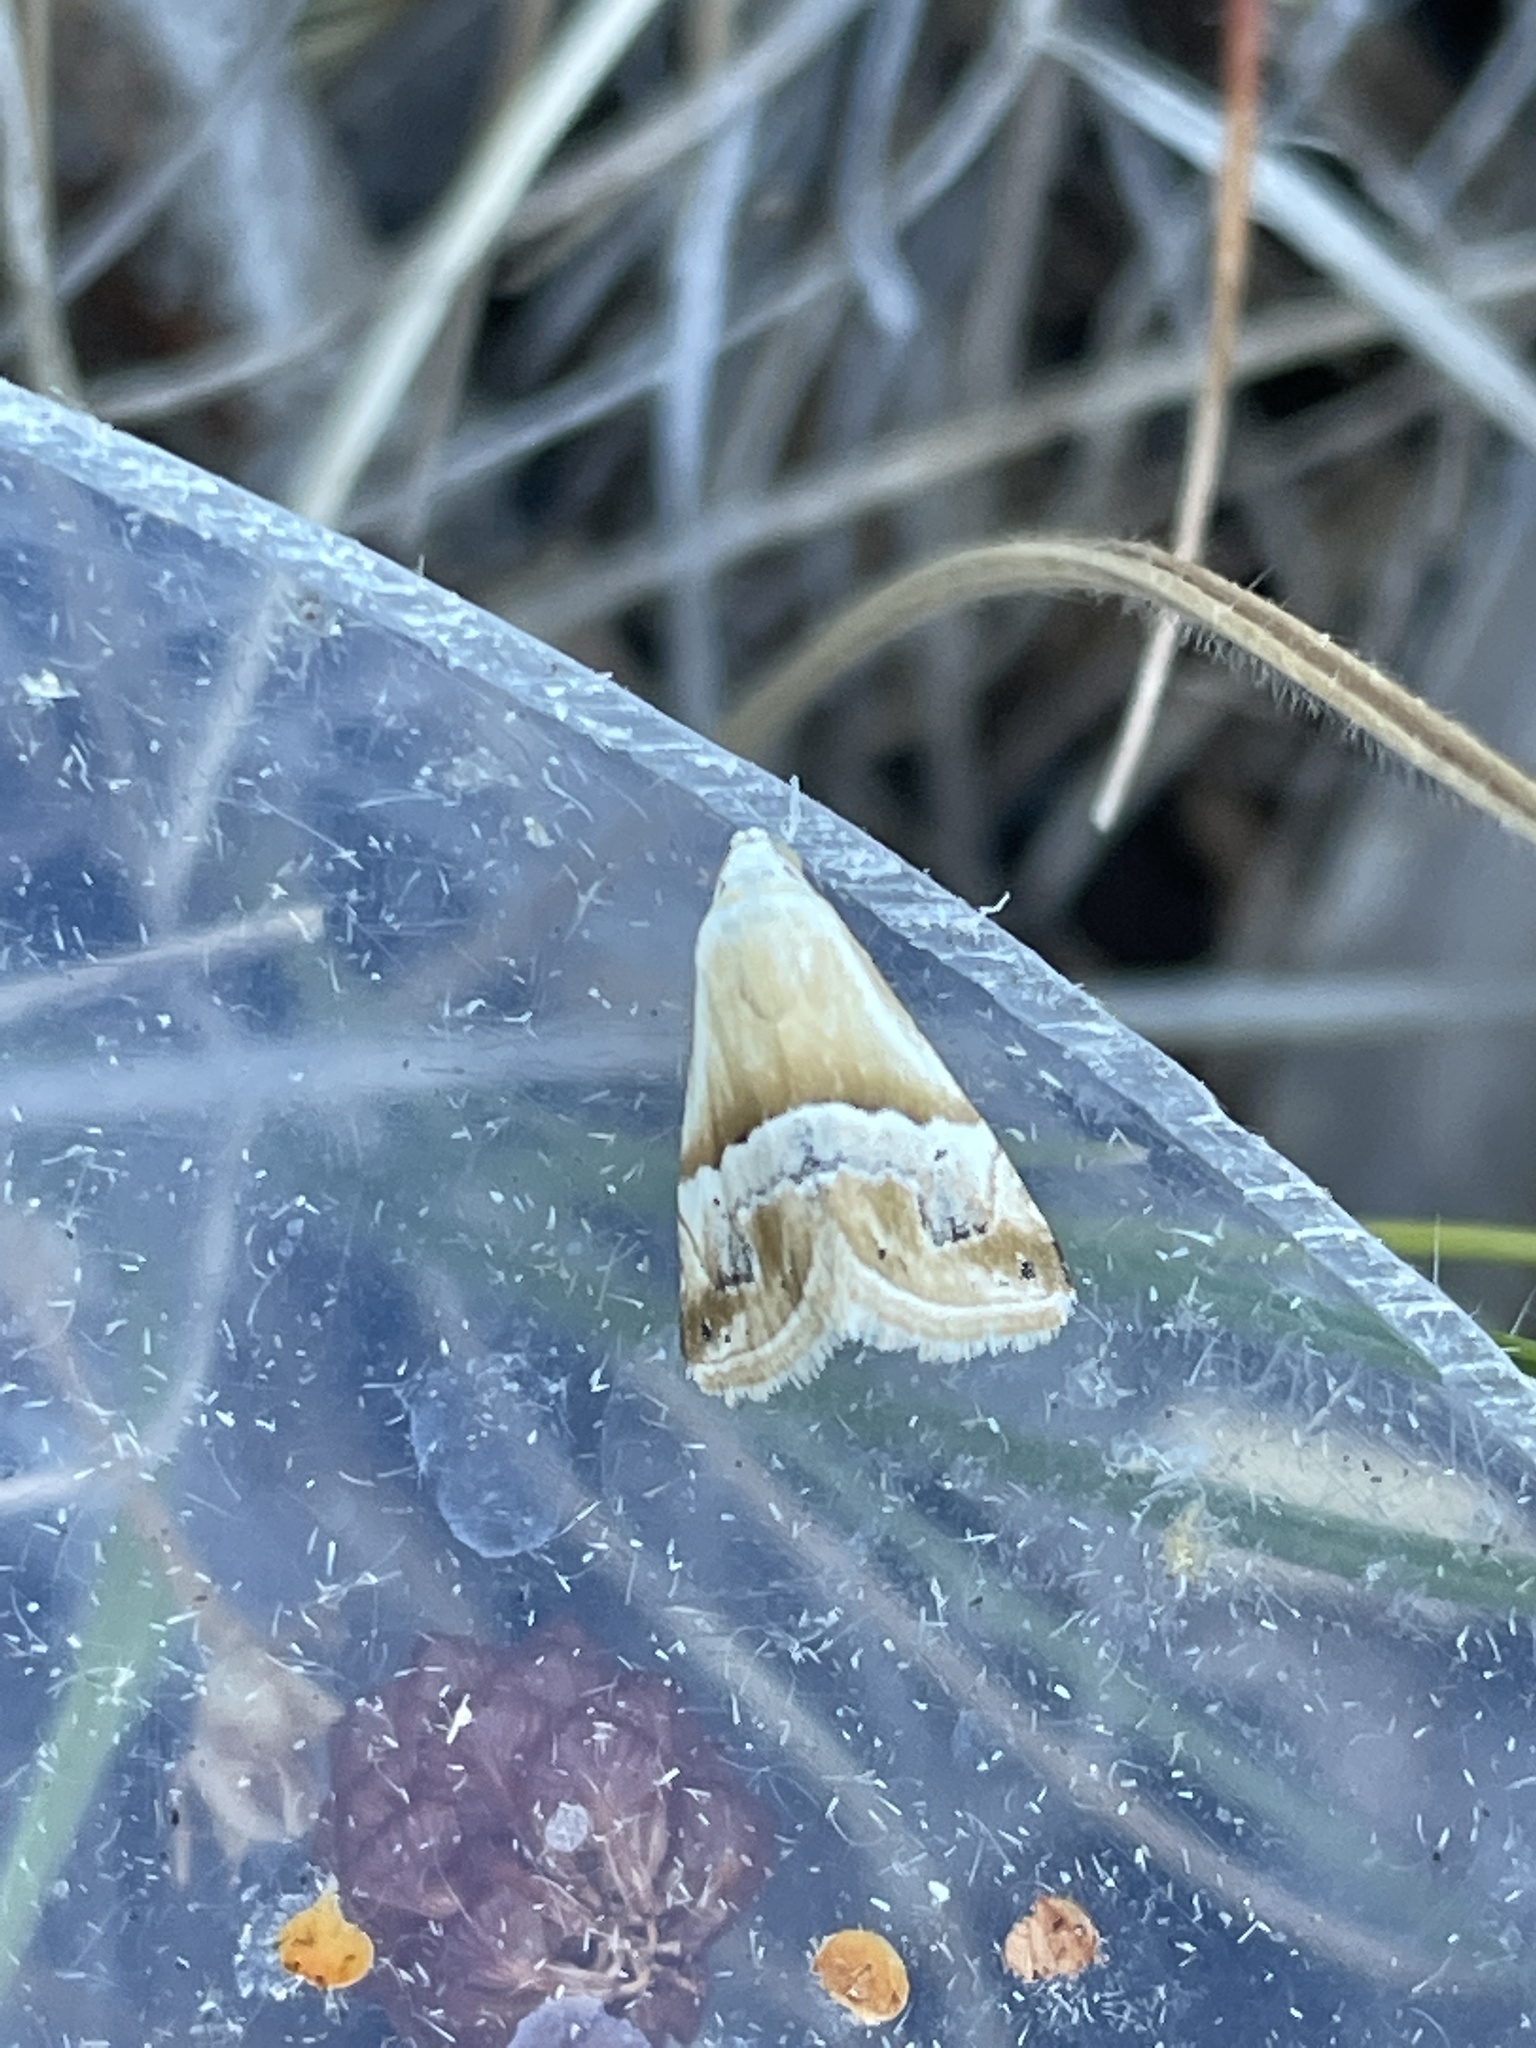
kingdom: Animalia
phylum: Arthropoda
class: Insecta
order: Lepidoptera
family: Noctuidae
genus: Eublemma
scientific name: Eublemma parva
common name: Small marbled
